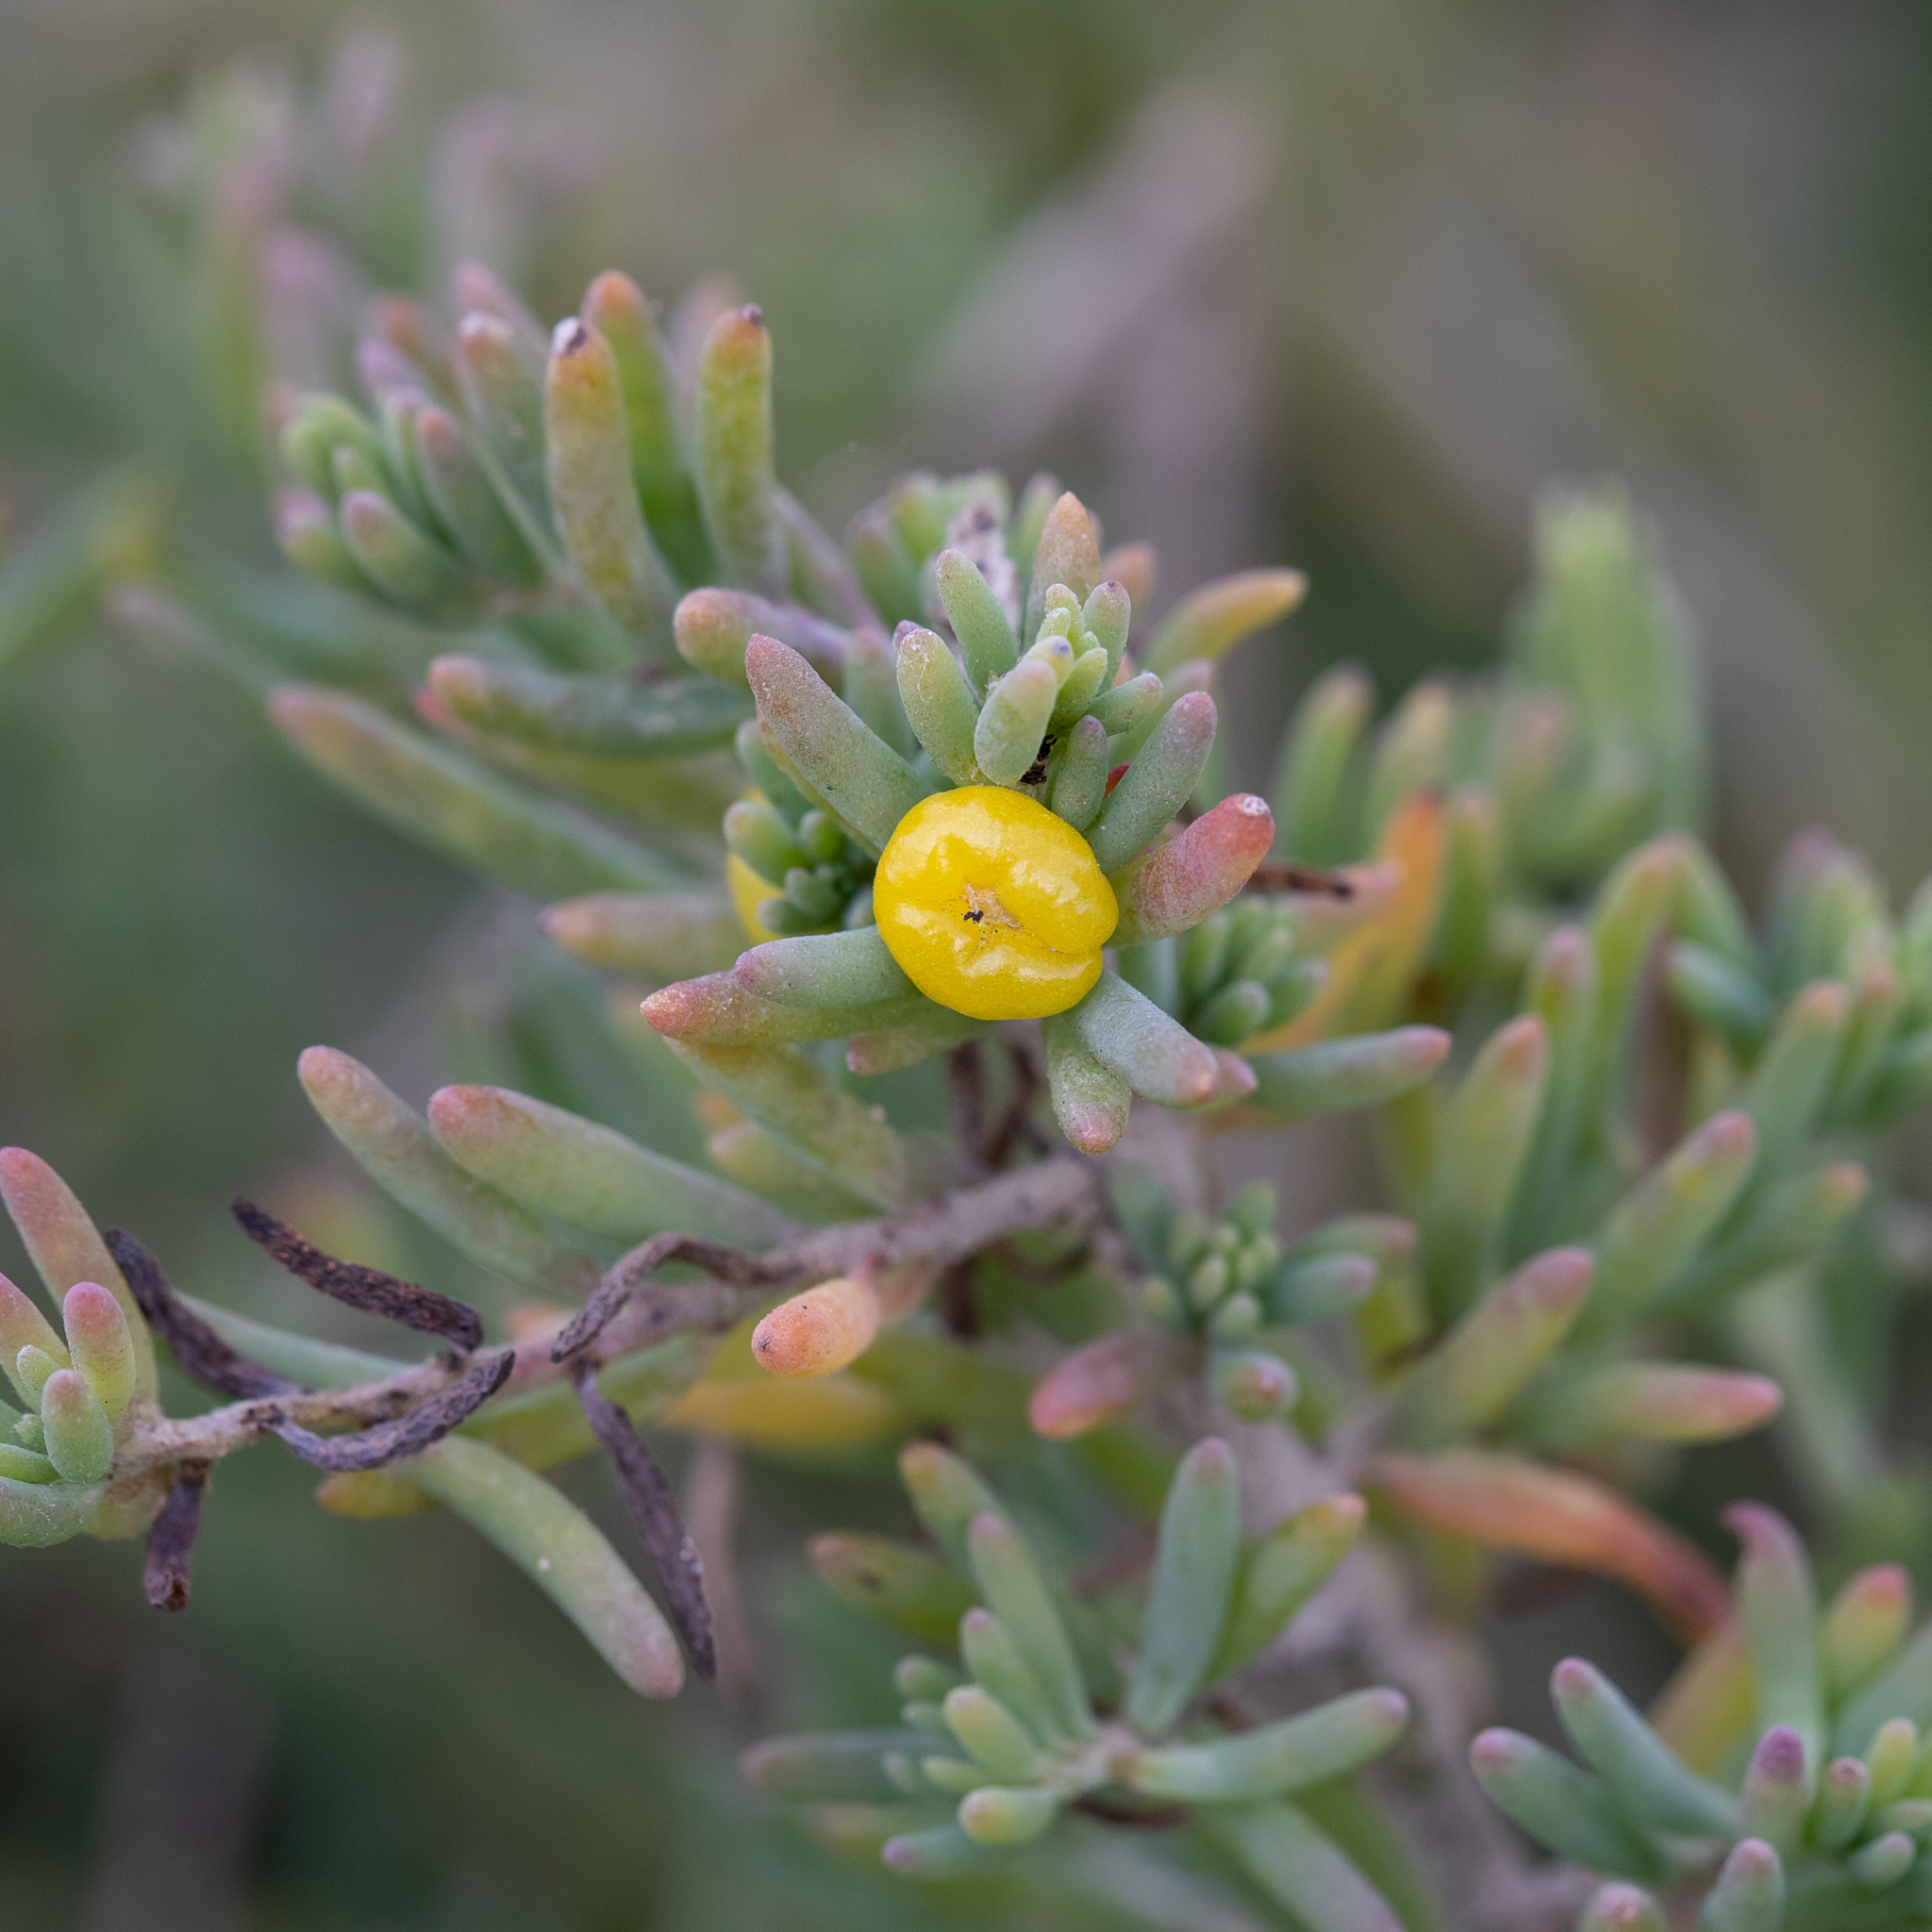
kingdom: Plantae
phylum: Tracheophyta
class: Magnoliopsida
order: Caryophyllales
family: Amaranthaceae
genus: Enchylaena
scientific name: Enchylaena tomentosa
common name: Ruby saltbush
